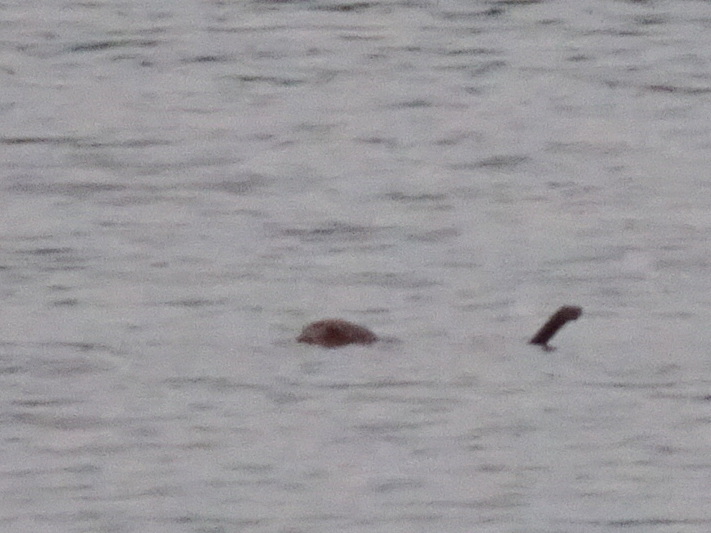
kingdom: Animalia
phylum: Chordata
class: Mammalia
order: Rodentia
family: Cricetidae
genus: Ondatra
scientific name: Ondatra zibethicus
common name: Muskrat
